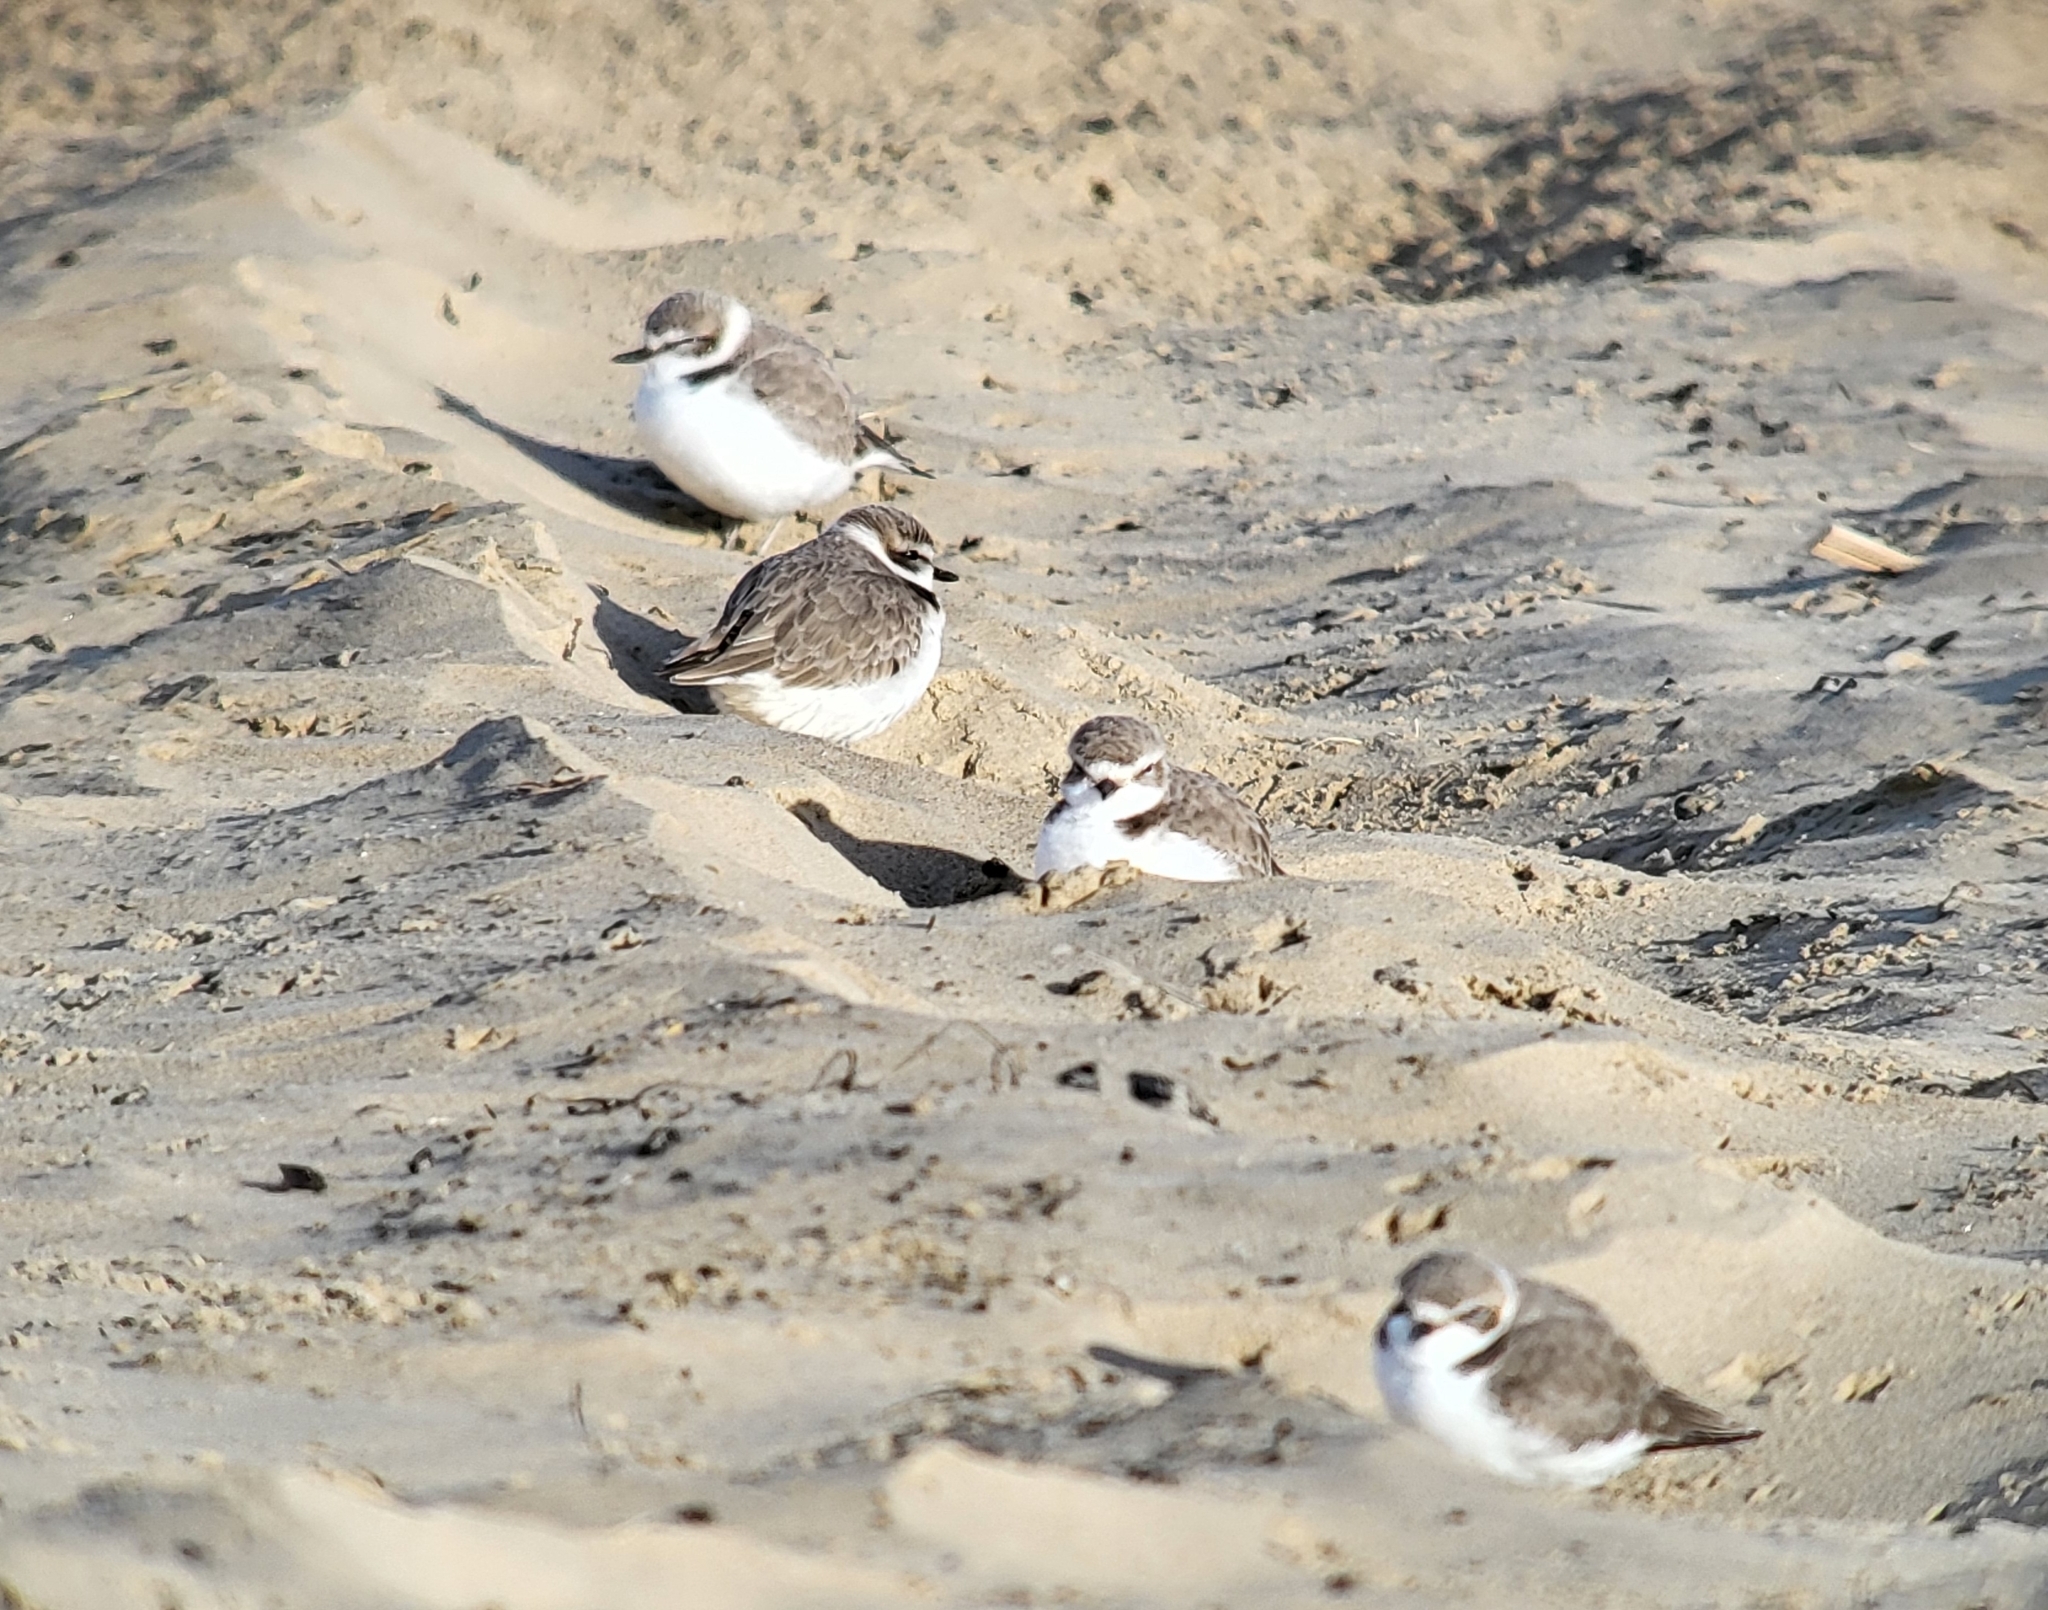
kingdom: Animalia
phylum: Chordata
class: Aves
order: Charadriiformes
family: Charadriidae
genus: Anarhynchus
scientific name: Anarhynchus
